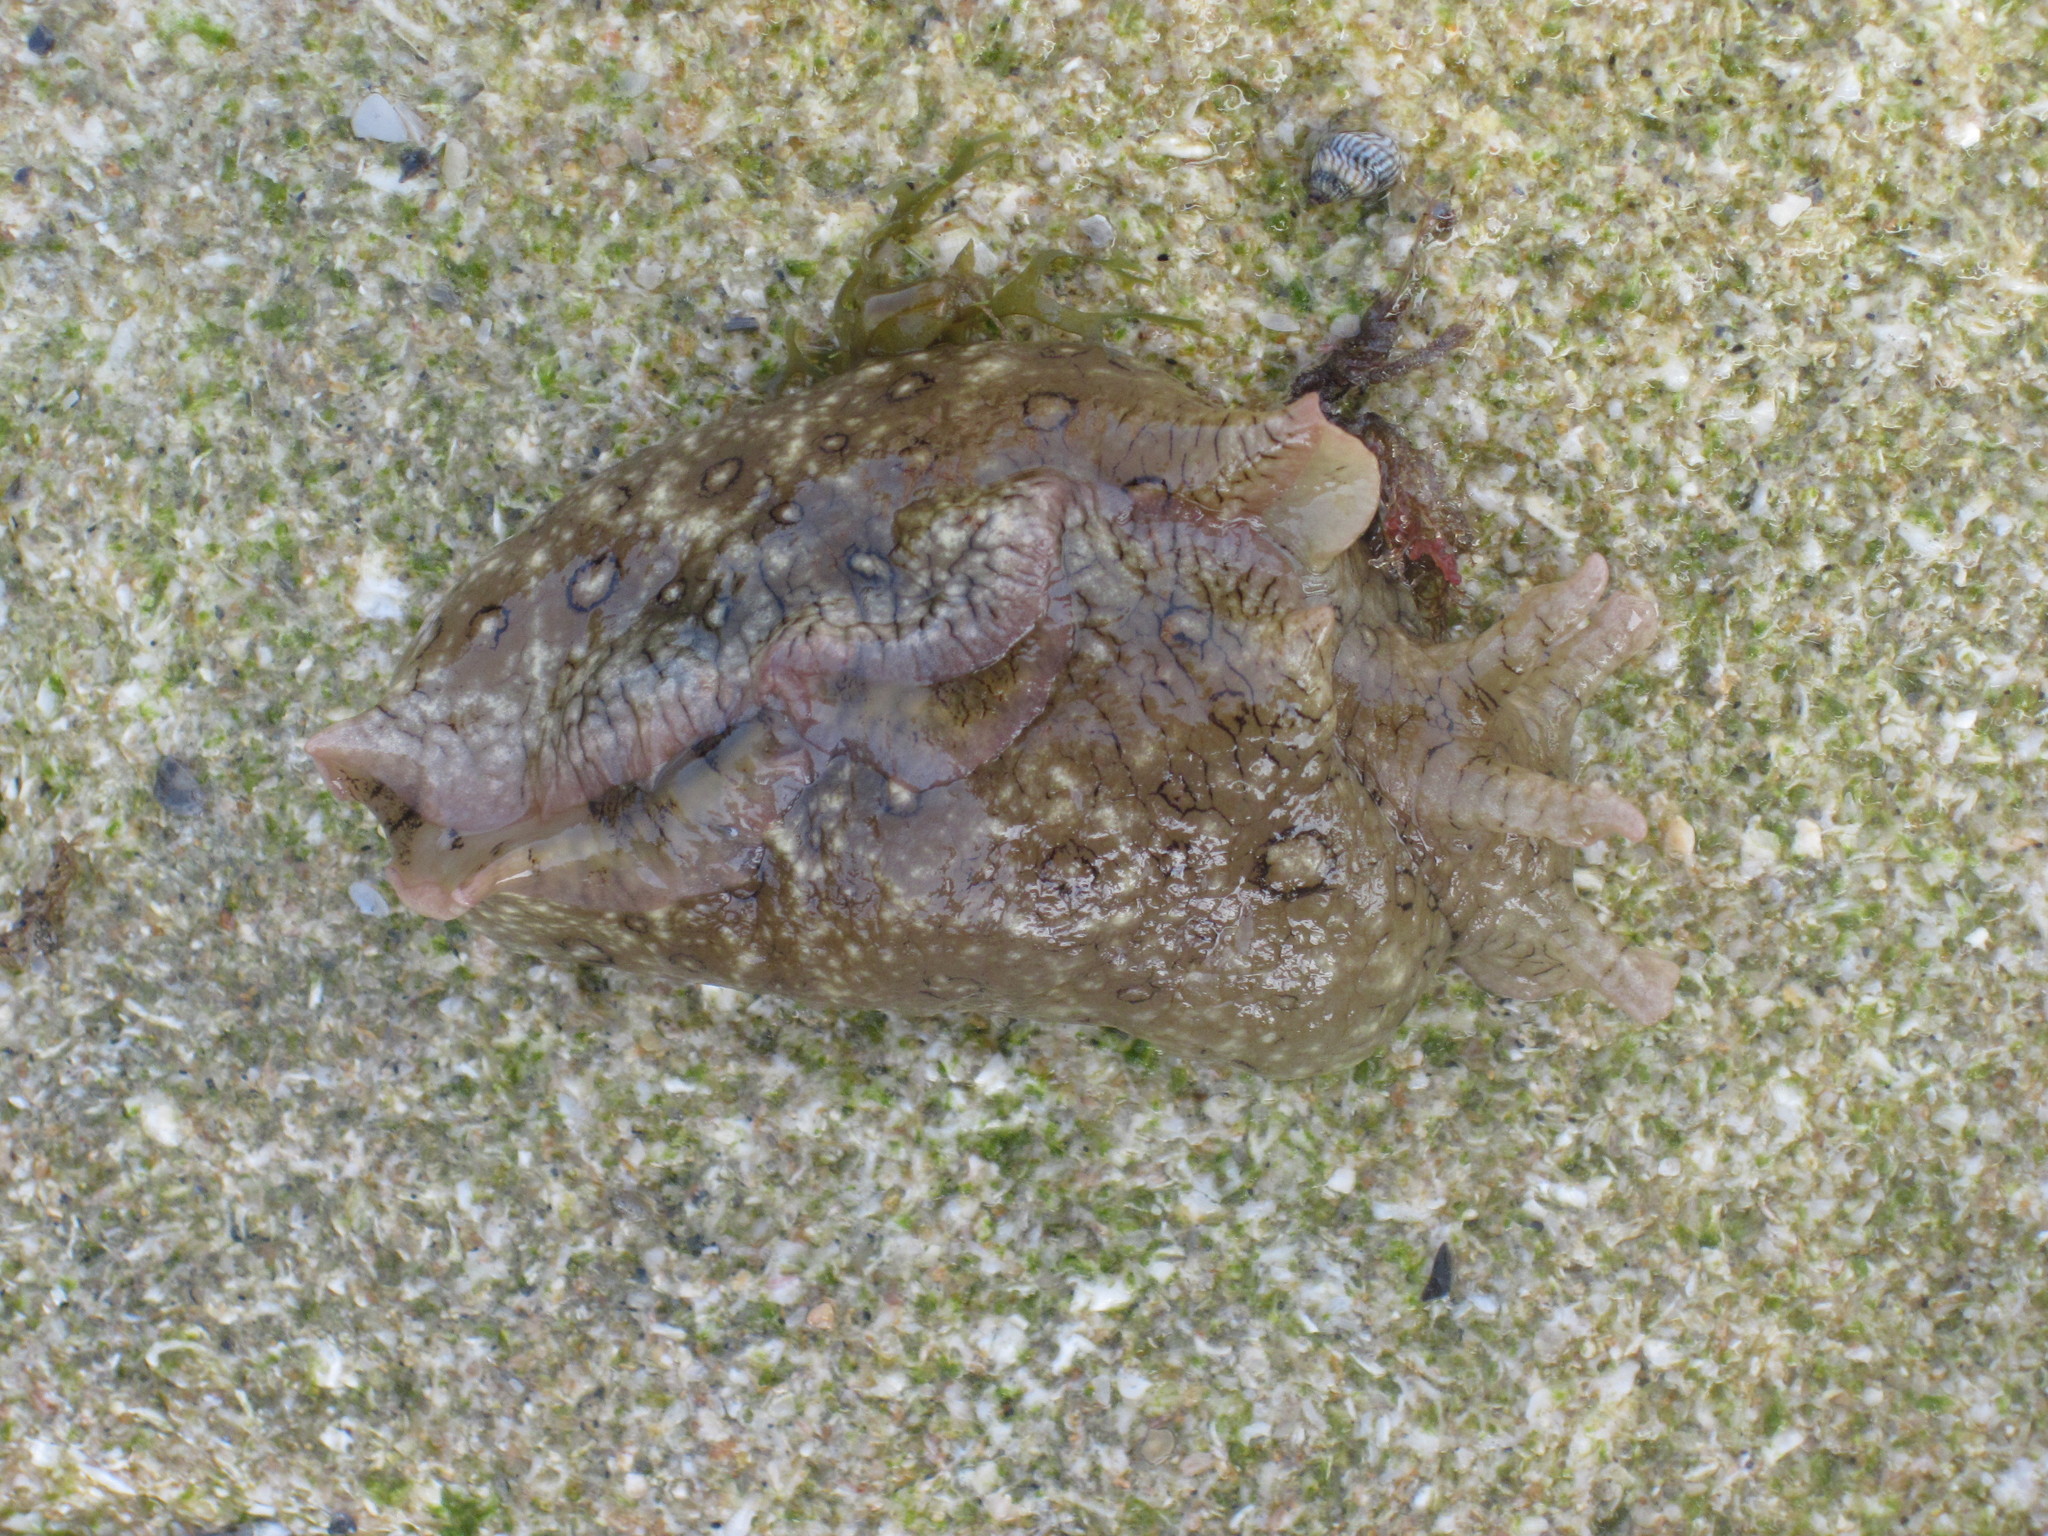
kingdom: Animalia
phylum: Mollusca
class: Gastropoda
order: Aplysiida
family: Aplysiidae
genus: Aplysia
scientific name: Aplysia dactylomela
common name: Large-spotted sea hare
